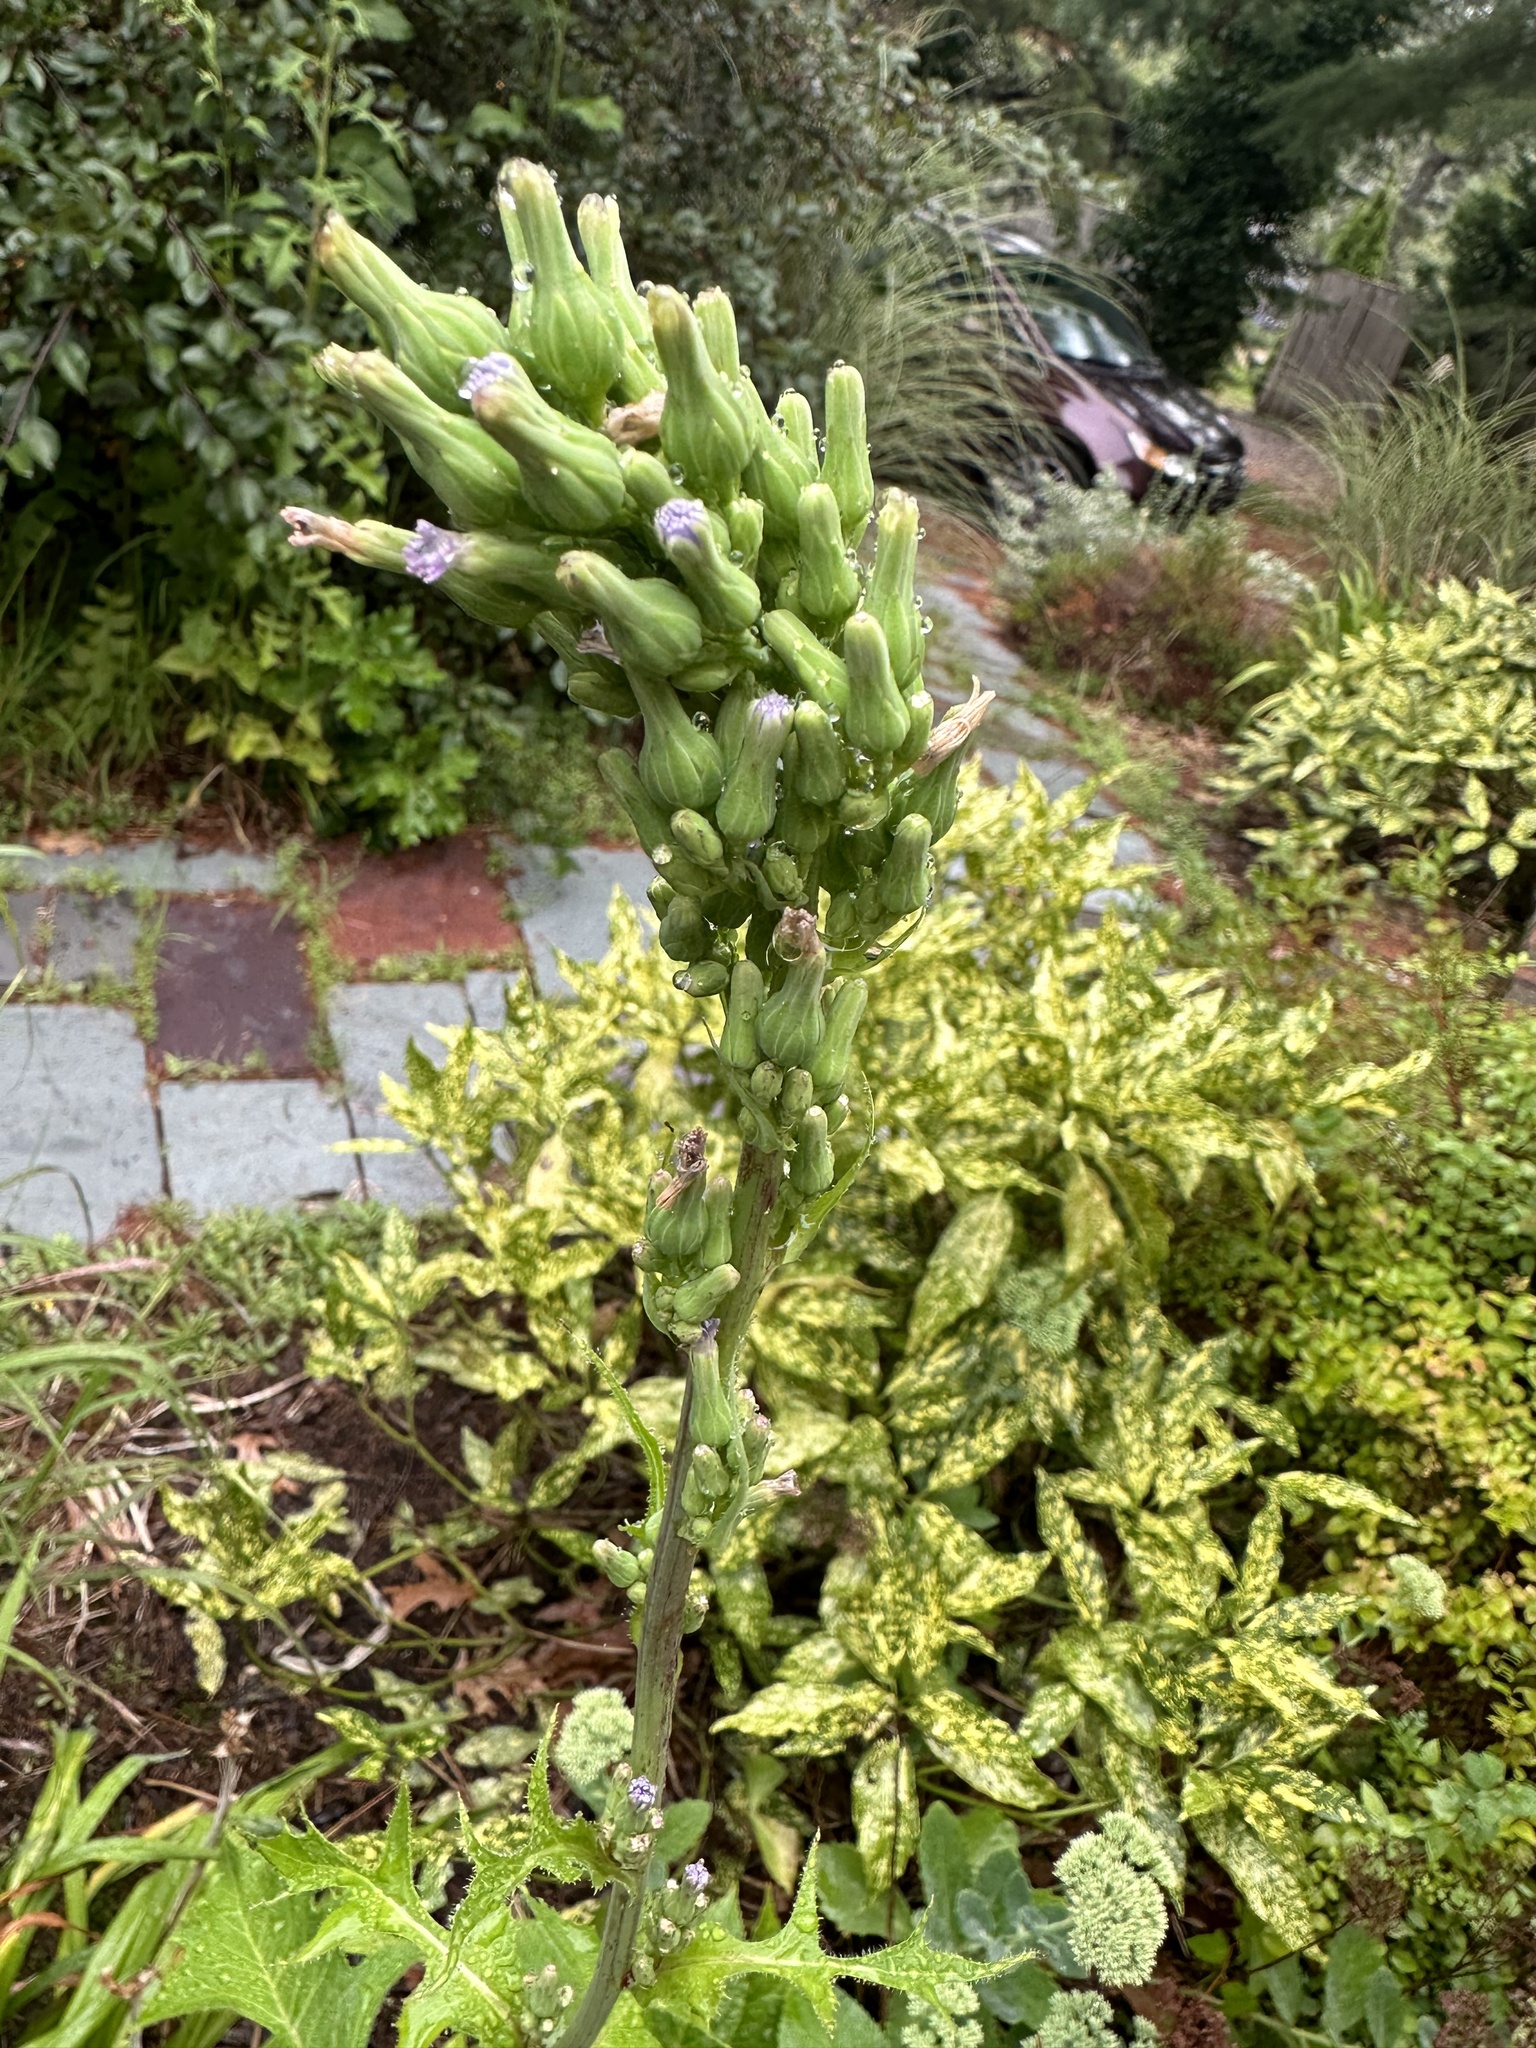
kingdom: Plantae
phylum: Tracheophyta
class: Magnoliopsida
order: Asterales
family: Asteraceae
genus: Lactuca
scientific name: Lactuca biennis
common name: Blue wood lettuce
